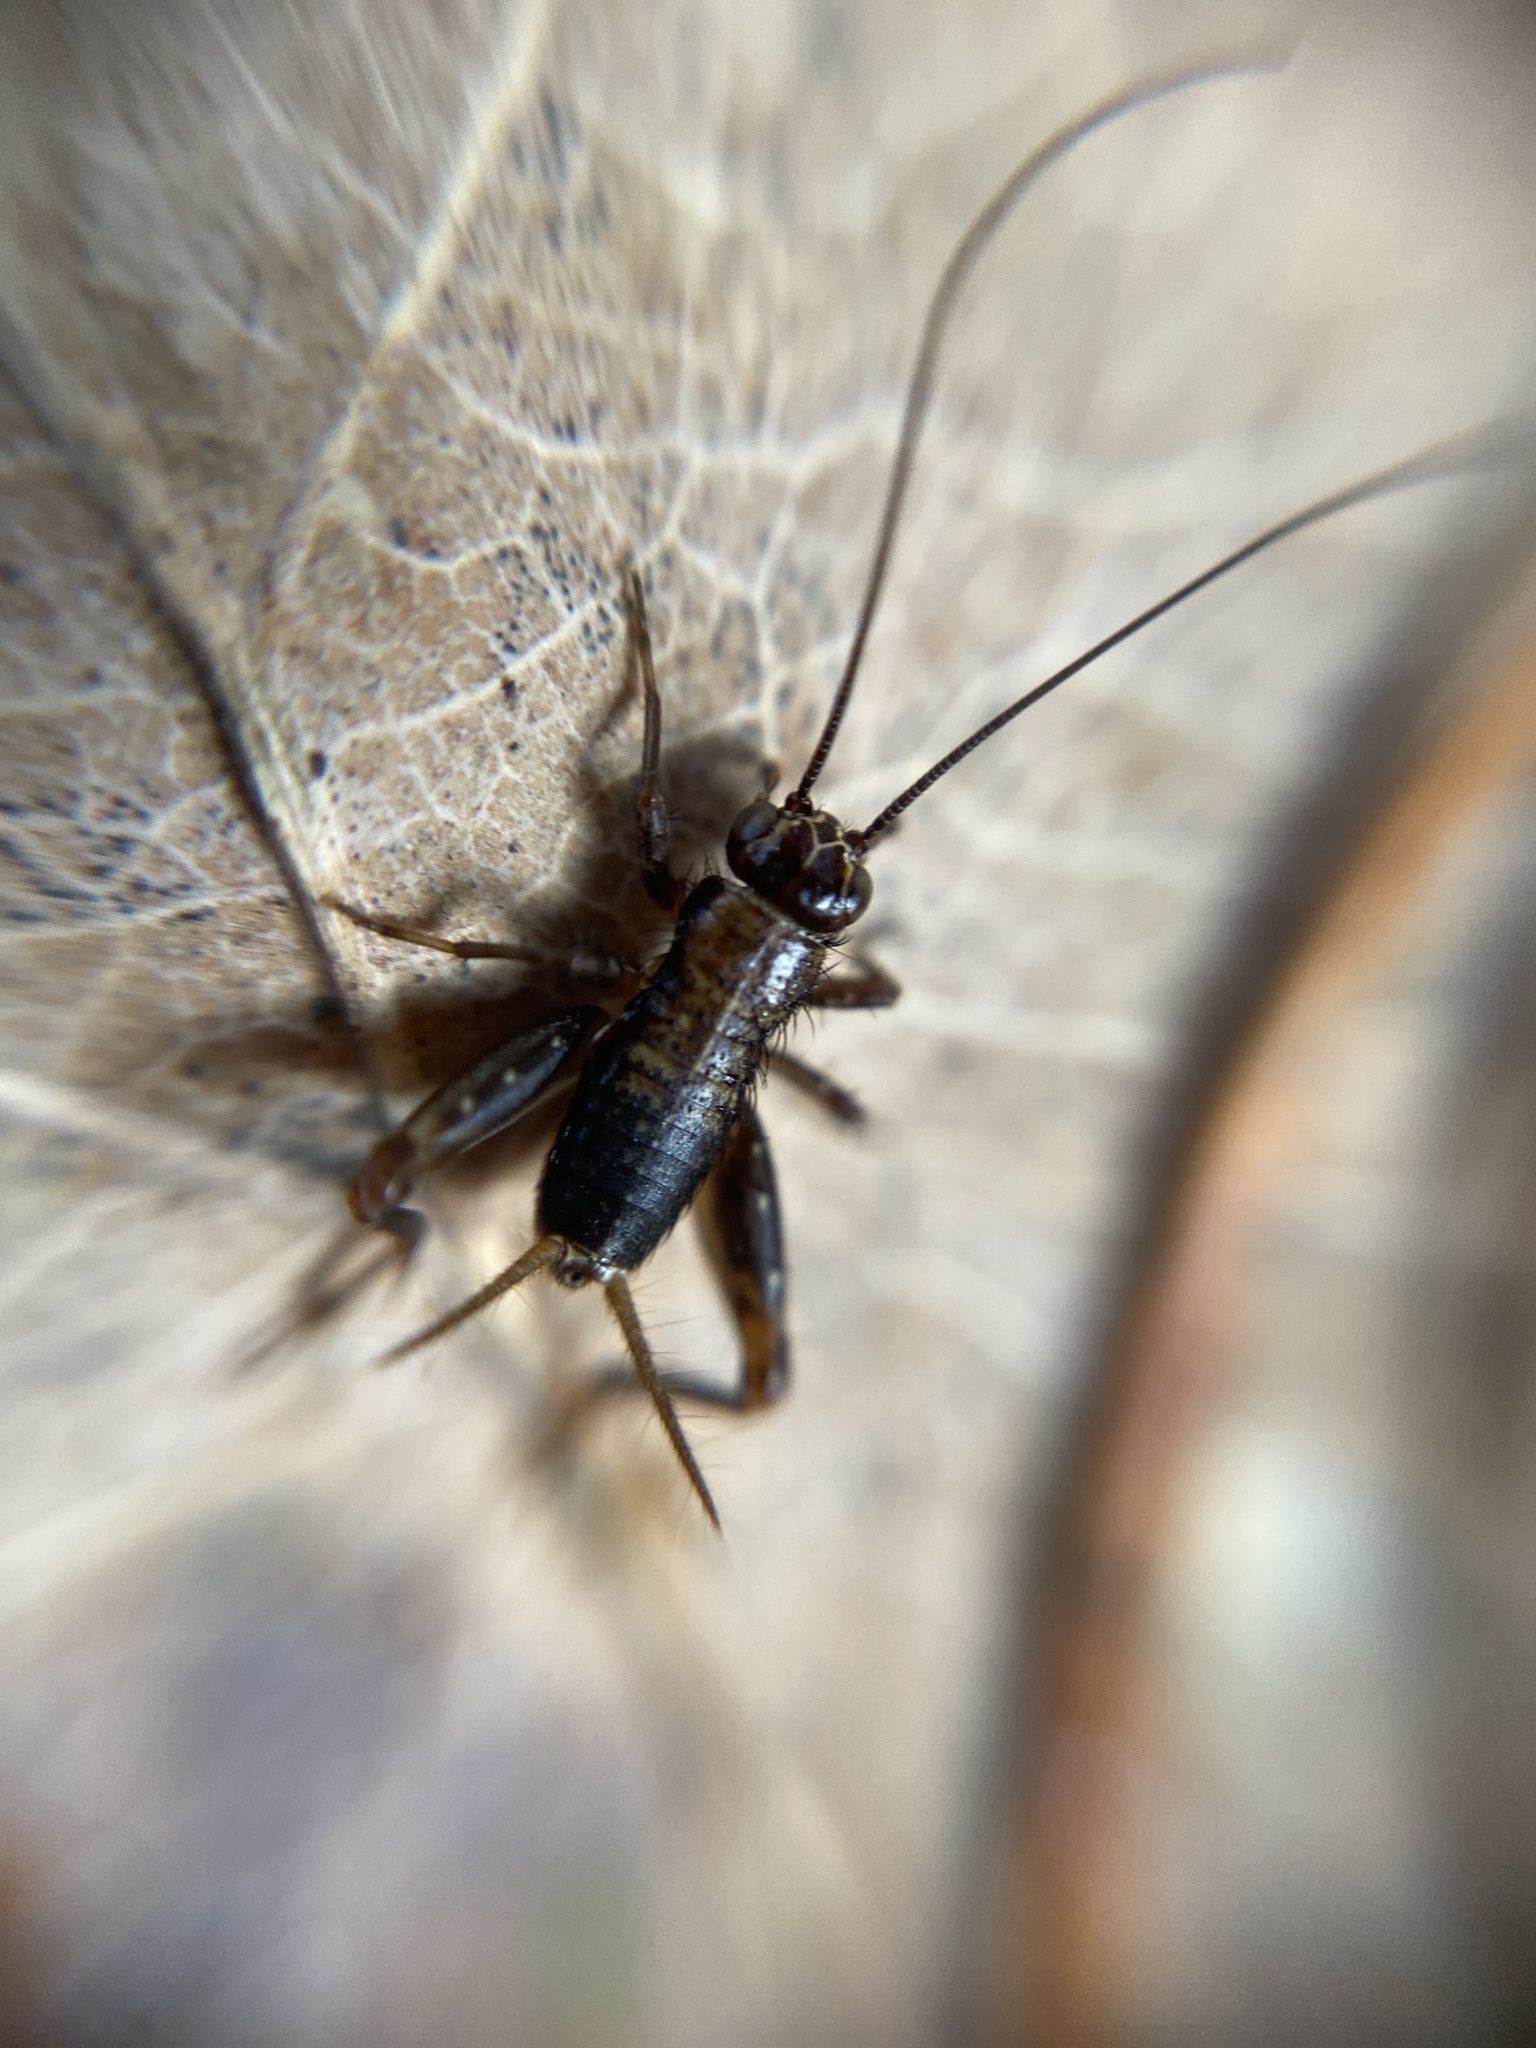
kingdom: Animalia
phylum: Arthropoda
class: Insecta
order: Orthoptera
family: Trigonidiidae
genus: Nemobius
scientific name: Nemobius sylvestris
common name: Wood-cricket
